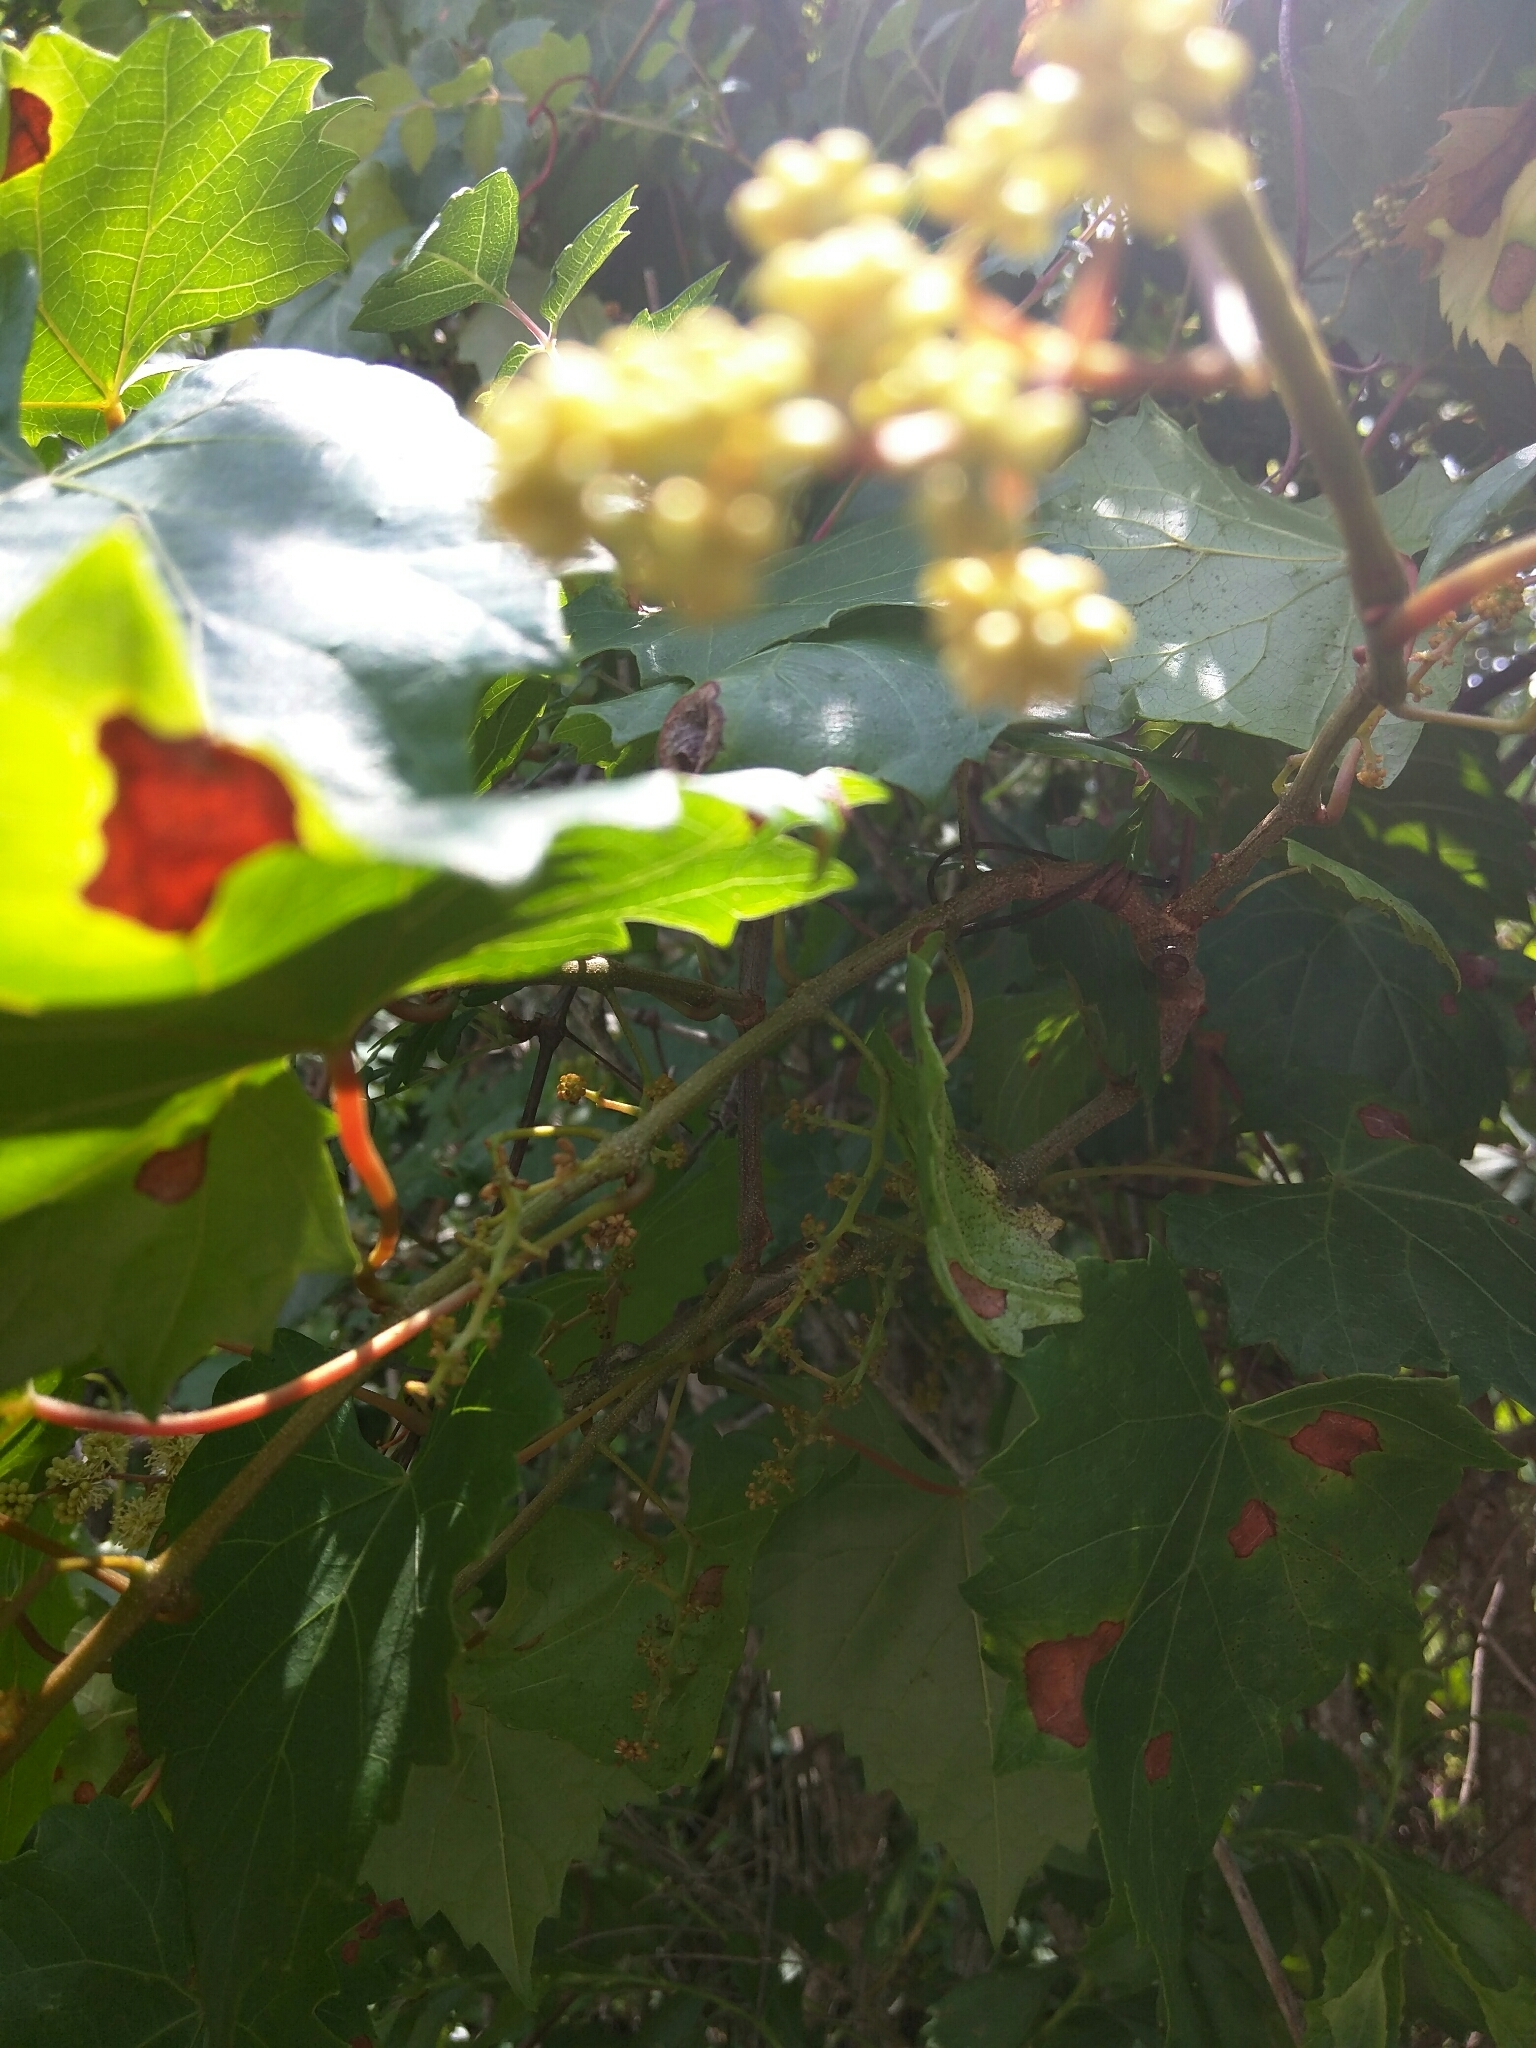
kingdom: Animalia
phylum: Chordata
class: Squamata
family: Dactyloidae
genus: Anolis
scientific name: Anolis carolinensis
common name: Green anole
